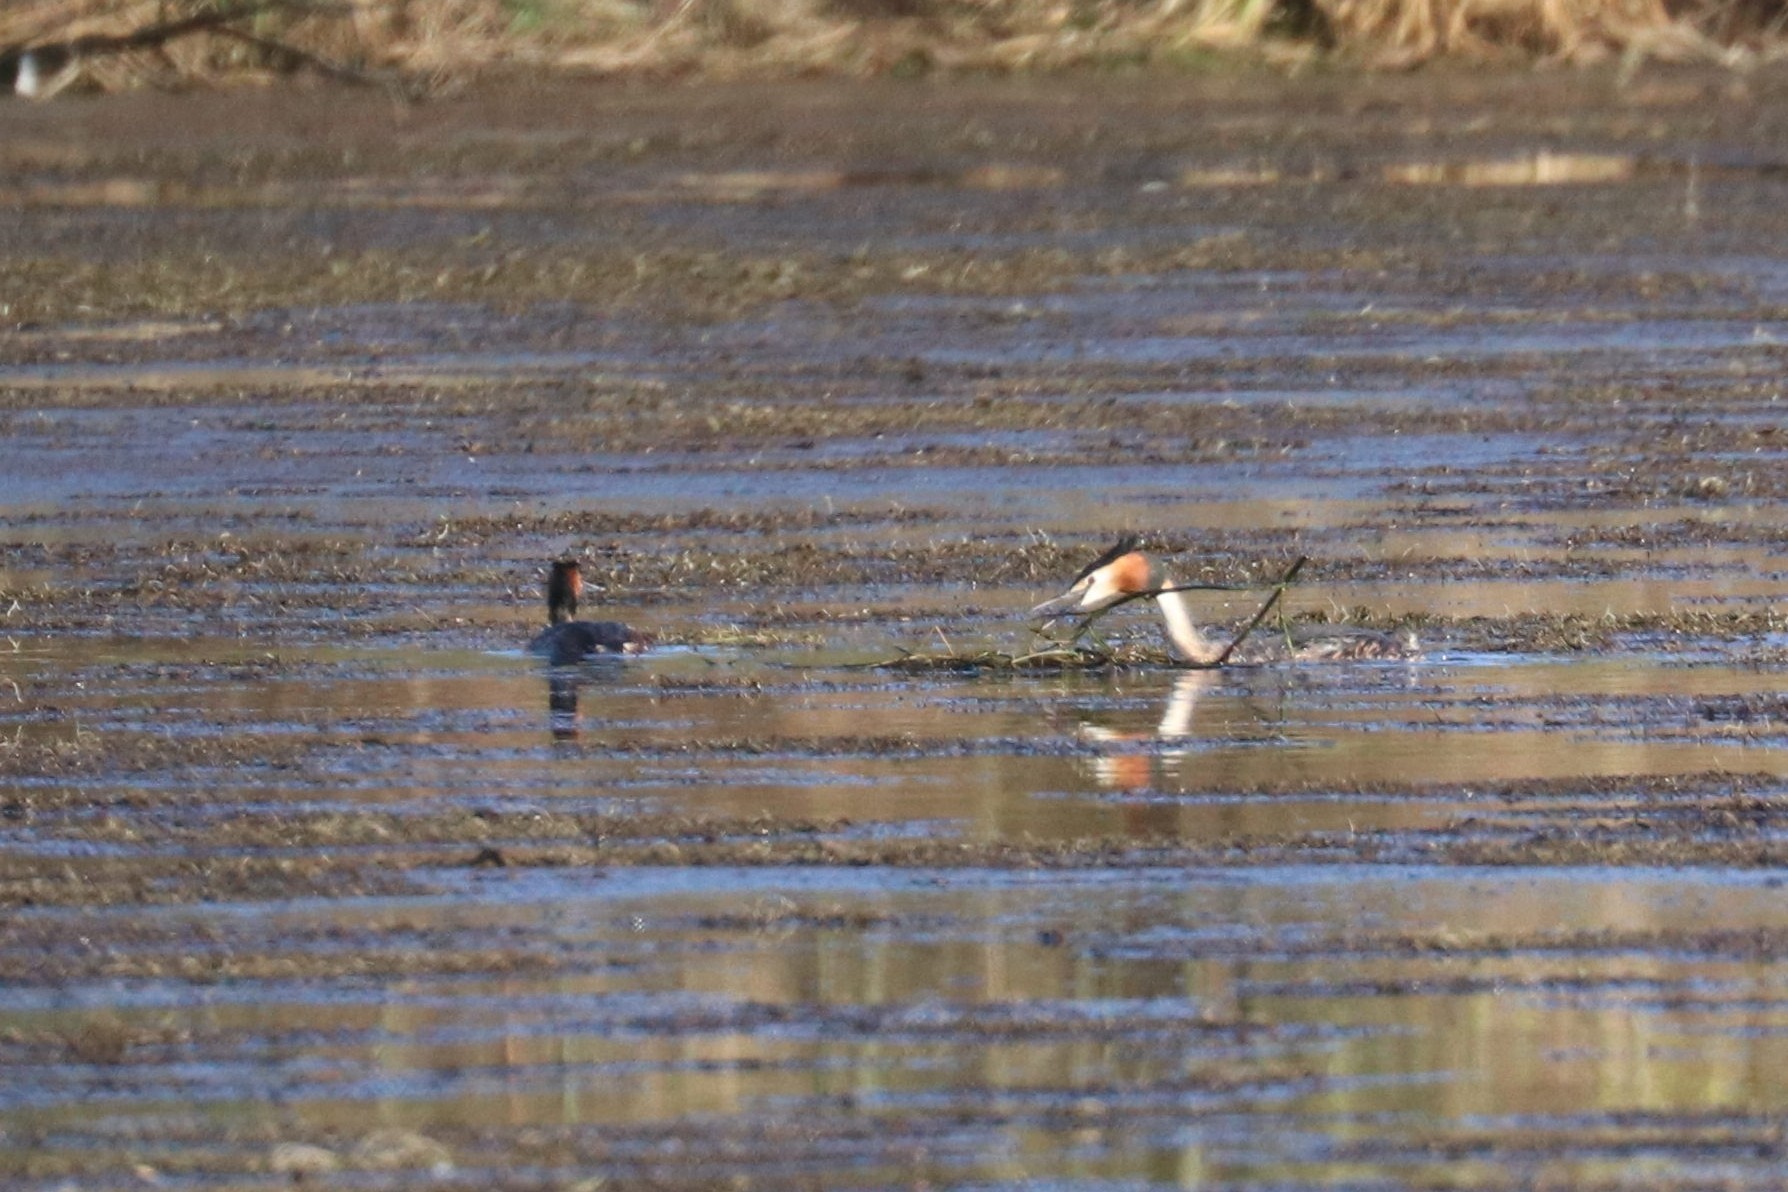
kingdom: Animalia
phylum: Chordata
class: Aves
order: Podicipediformes
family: Podicipedidae
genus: Podiceps
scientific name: Podiceps cristatus
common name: Great crested grebe
